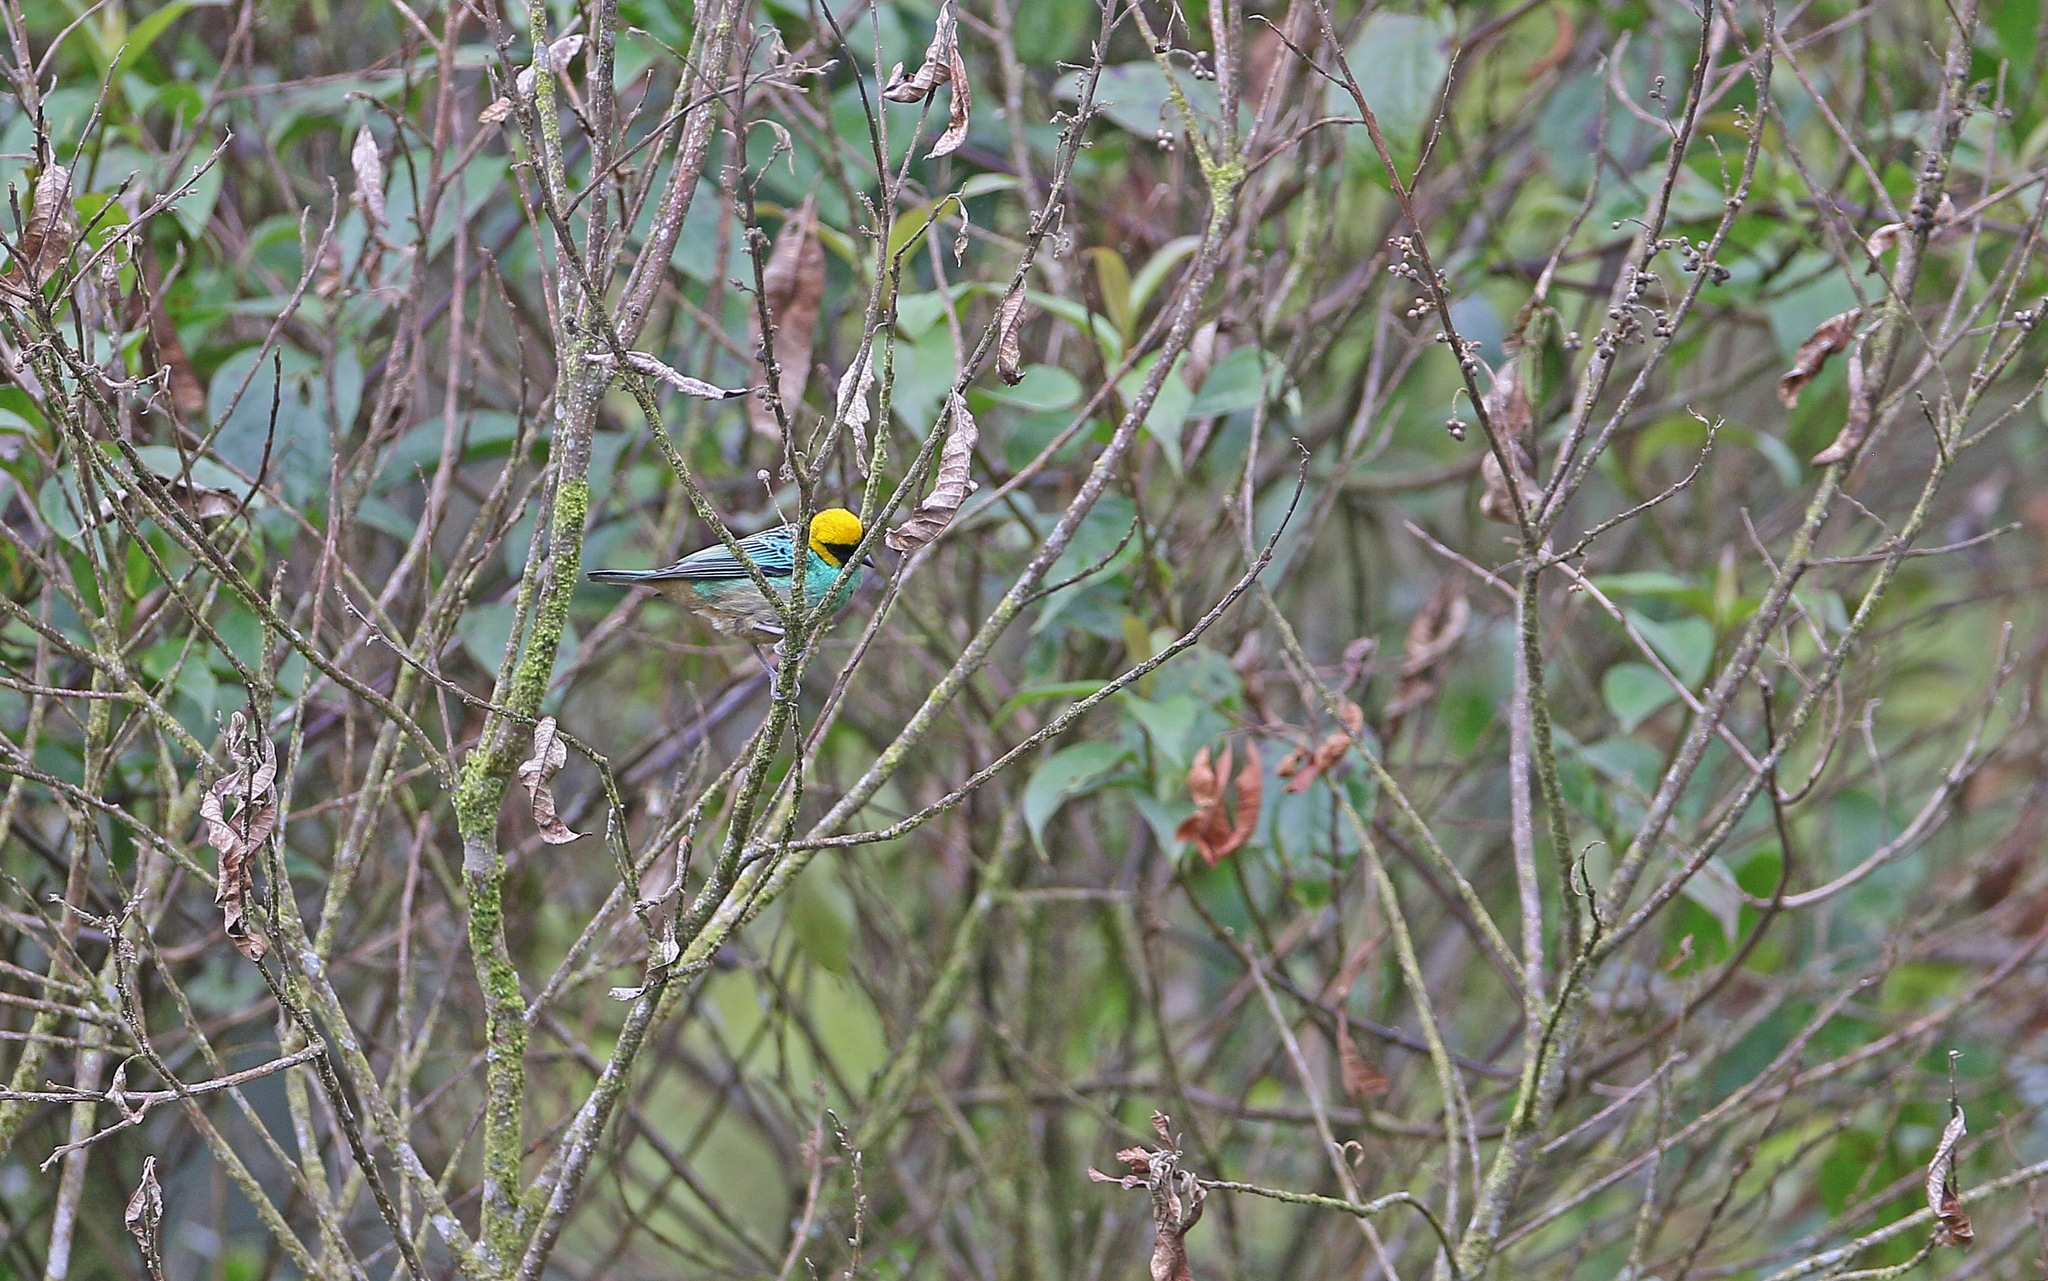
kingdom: Animalia
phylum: Chordata
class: Aves
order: Passeriformes
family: Thraupidae
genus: Tangara
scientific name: Tangara xanthocephala
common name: Saffron-crowned tanager
